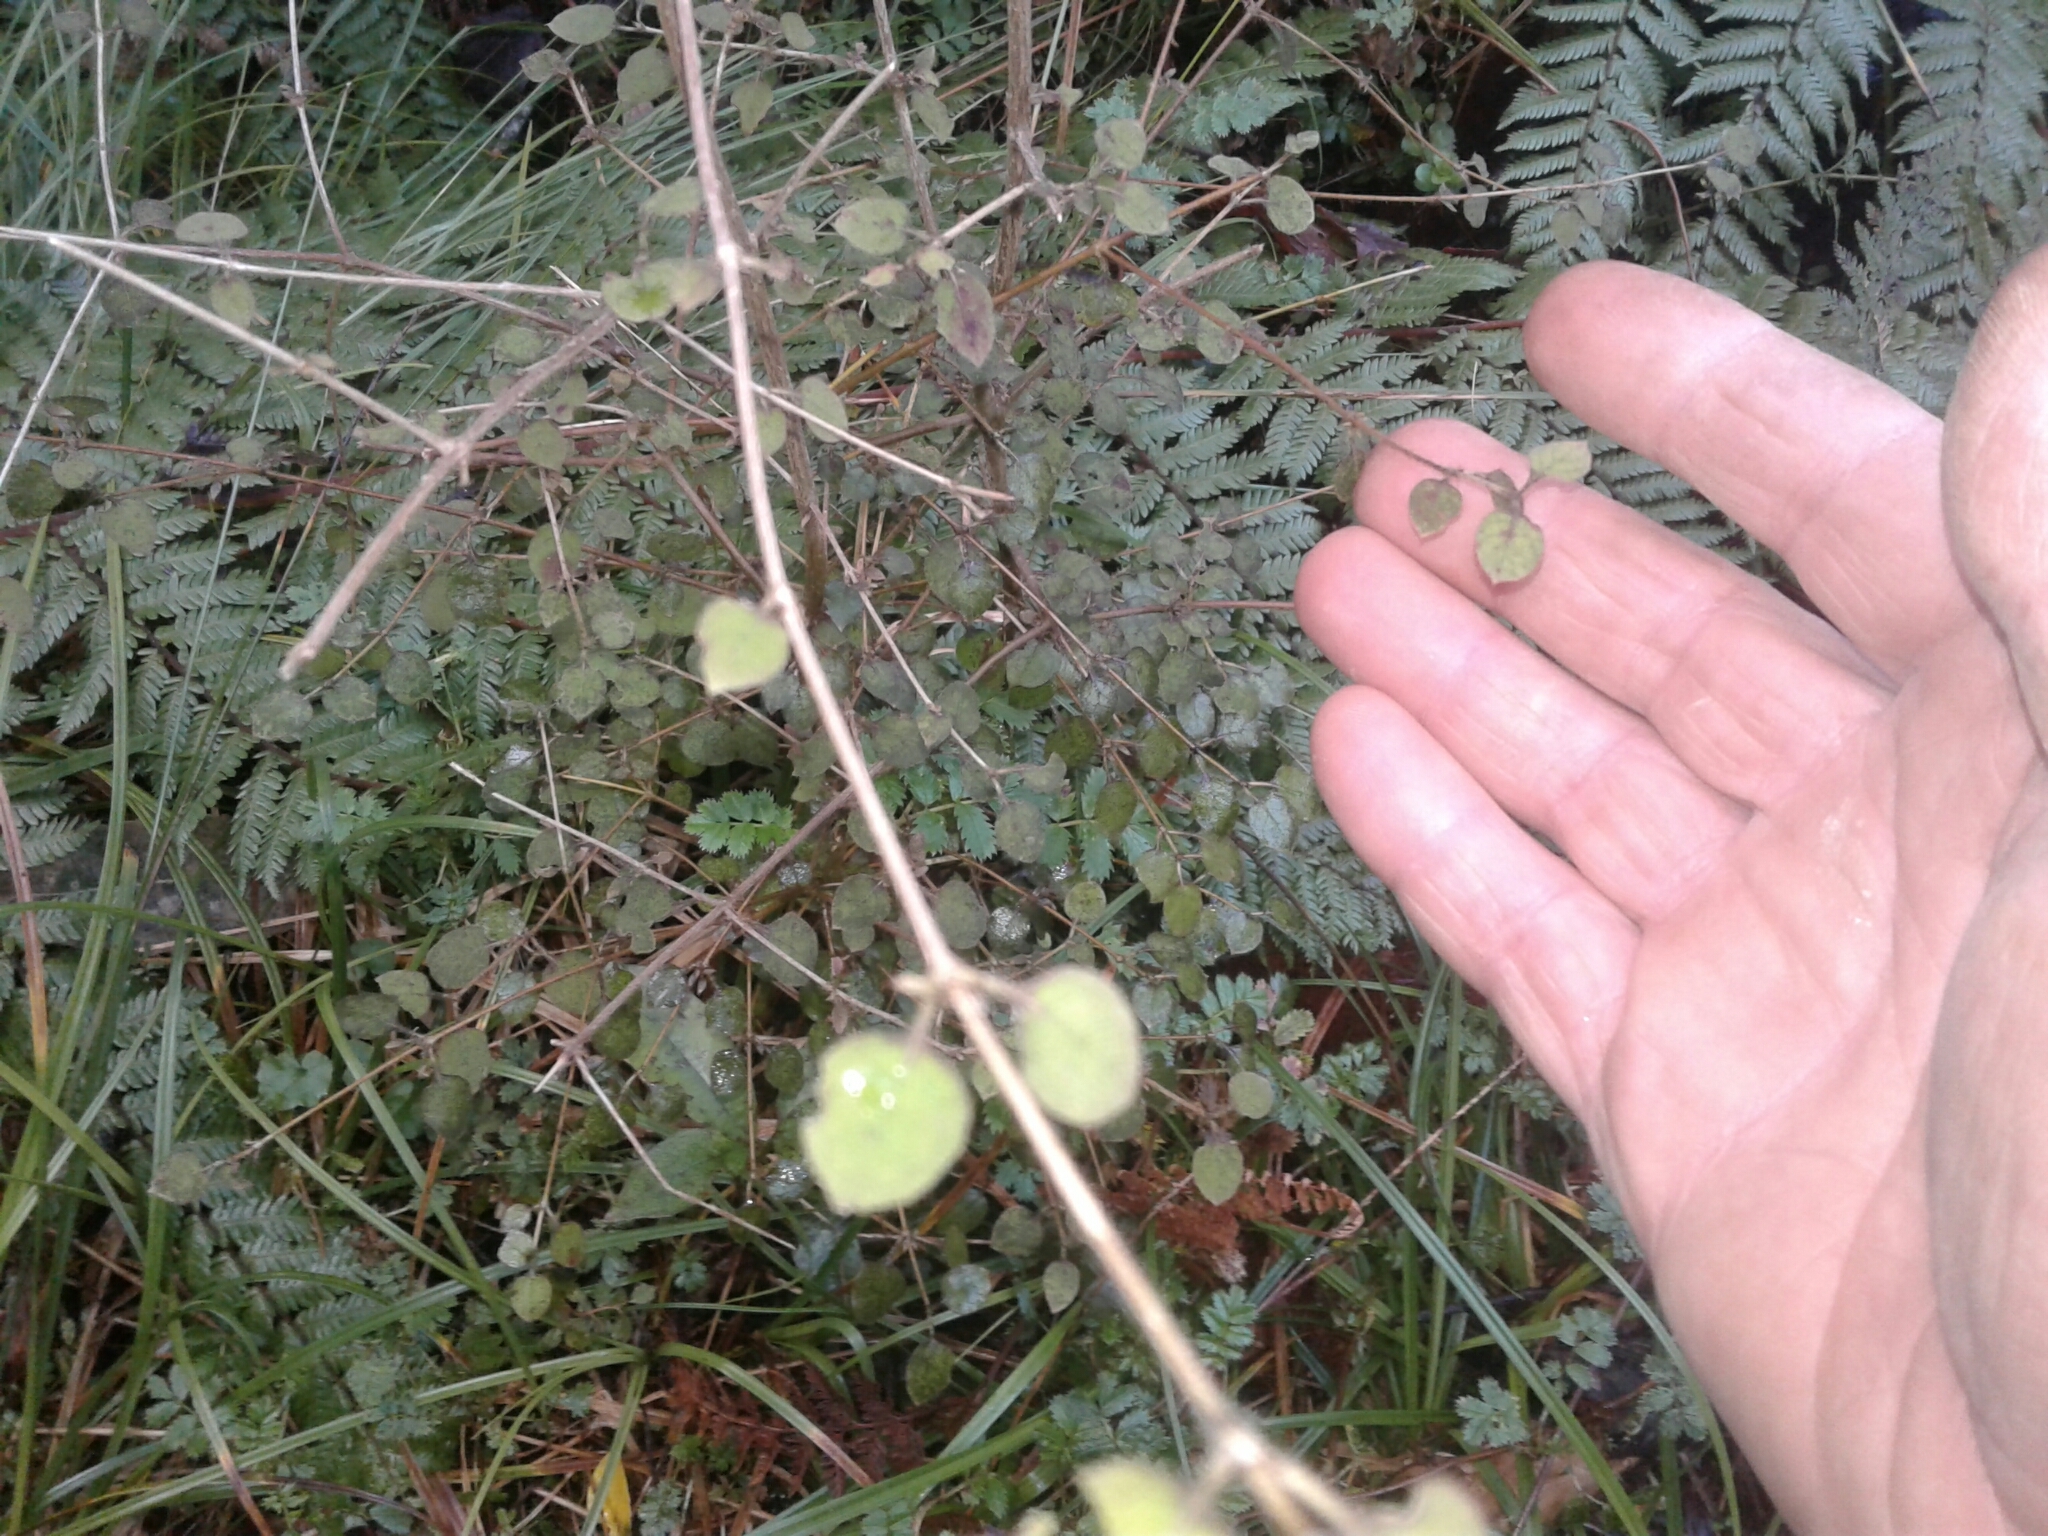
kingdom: Plantae
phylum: Tracheophyta
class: Magnoliopsida
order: Gentianales
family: Rubiaceae
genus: Coprosma
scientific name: Coprosma rotundifolia
